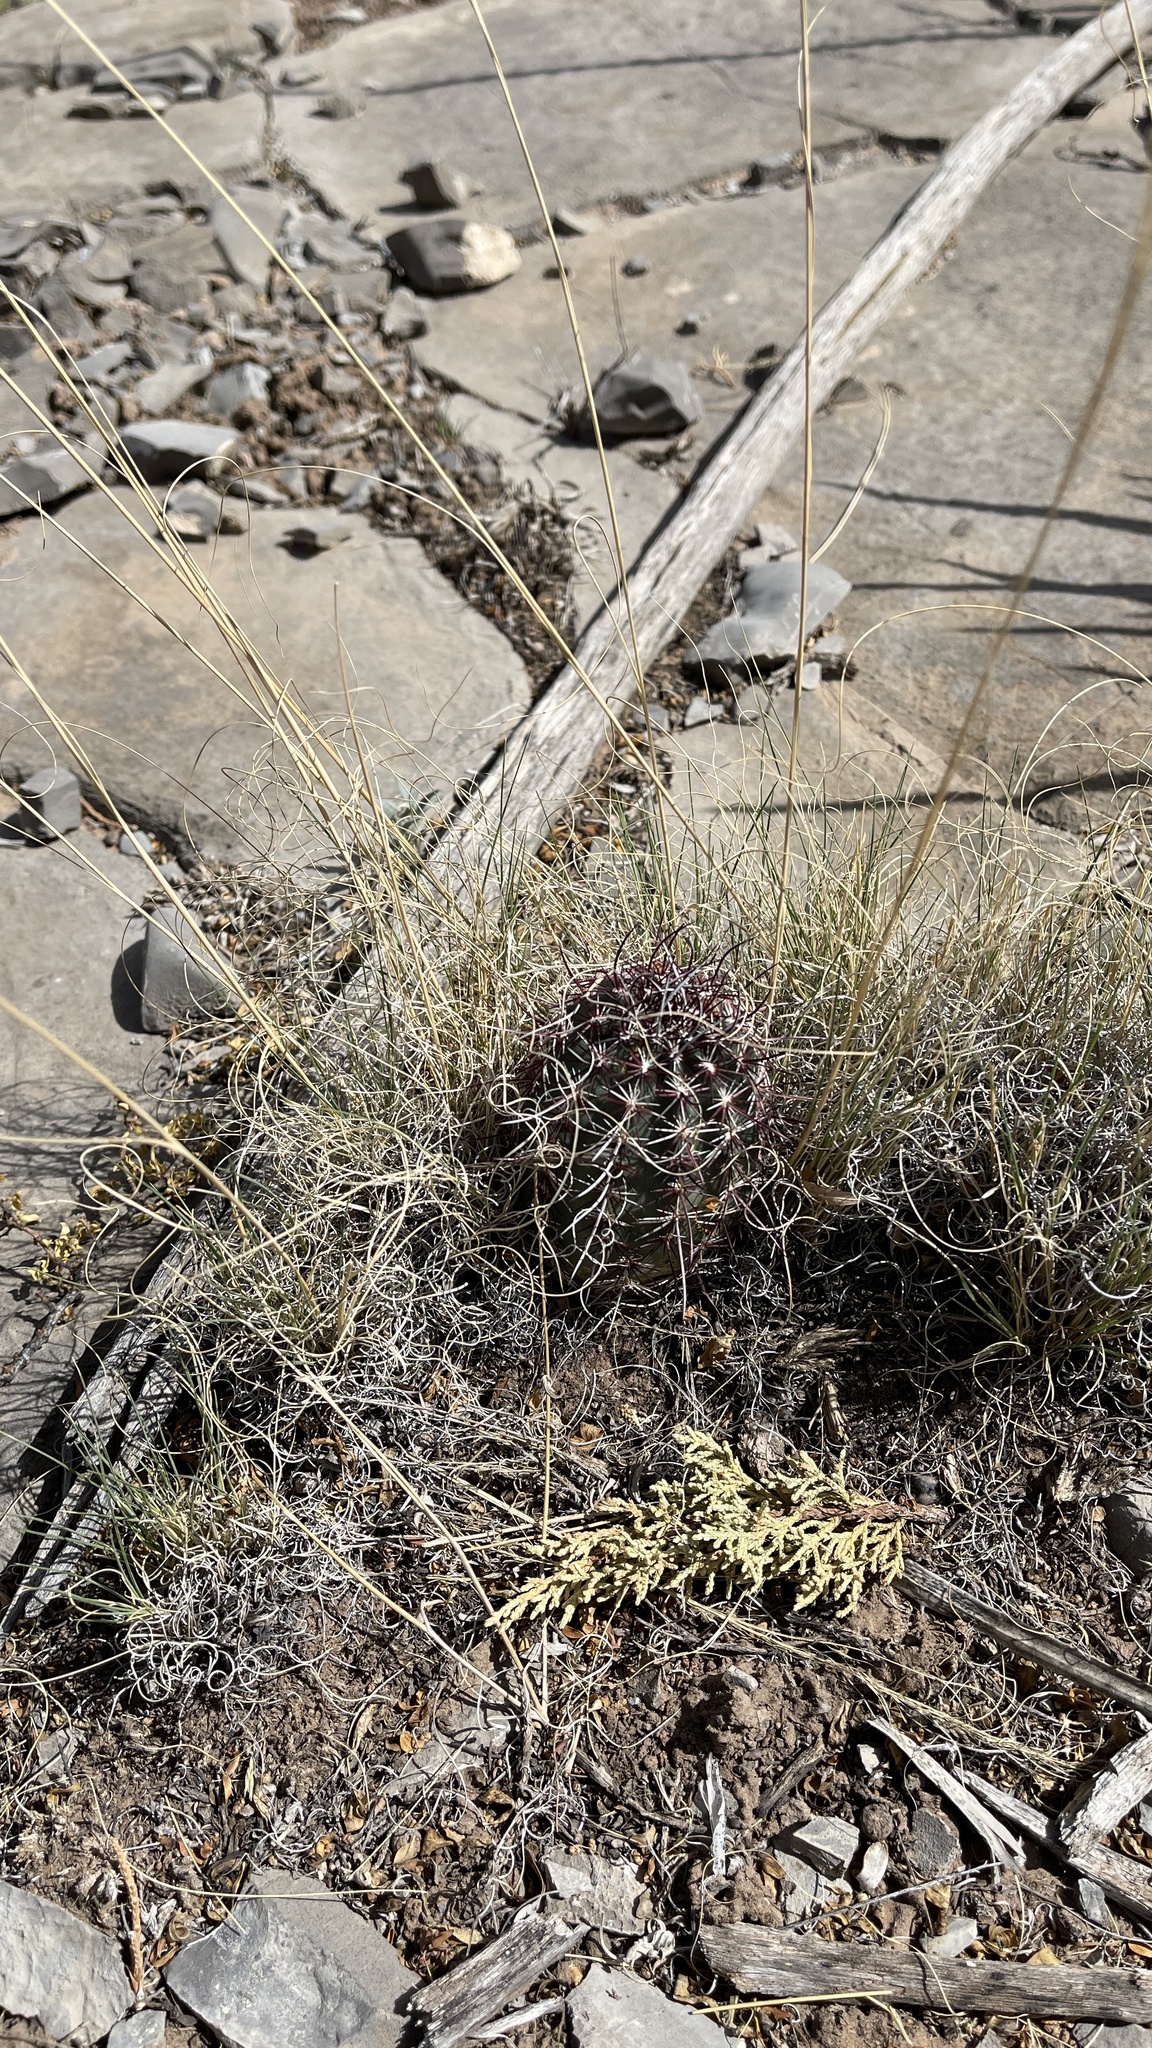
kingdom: Plantae
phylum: Tracheophyta
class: Magnoliopsida
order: Caryophyllales
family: Cactaceae
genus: Echinocereus
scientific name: Echinocereus viridiflorus
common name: Nylon hedgehog cactus
